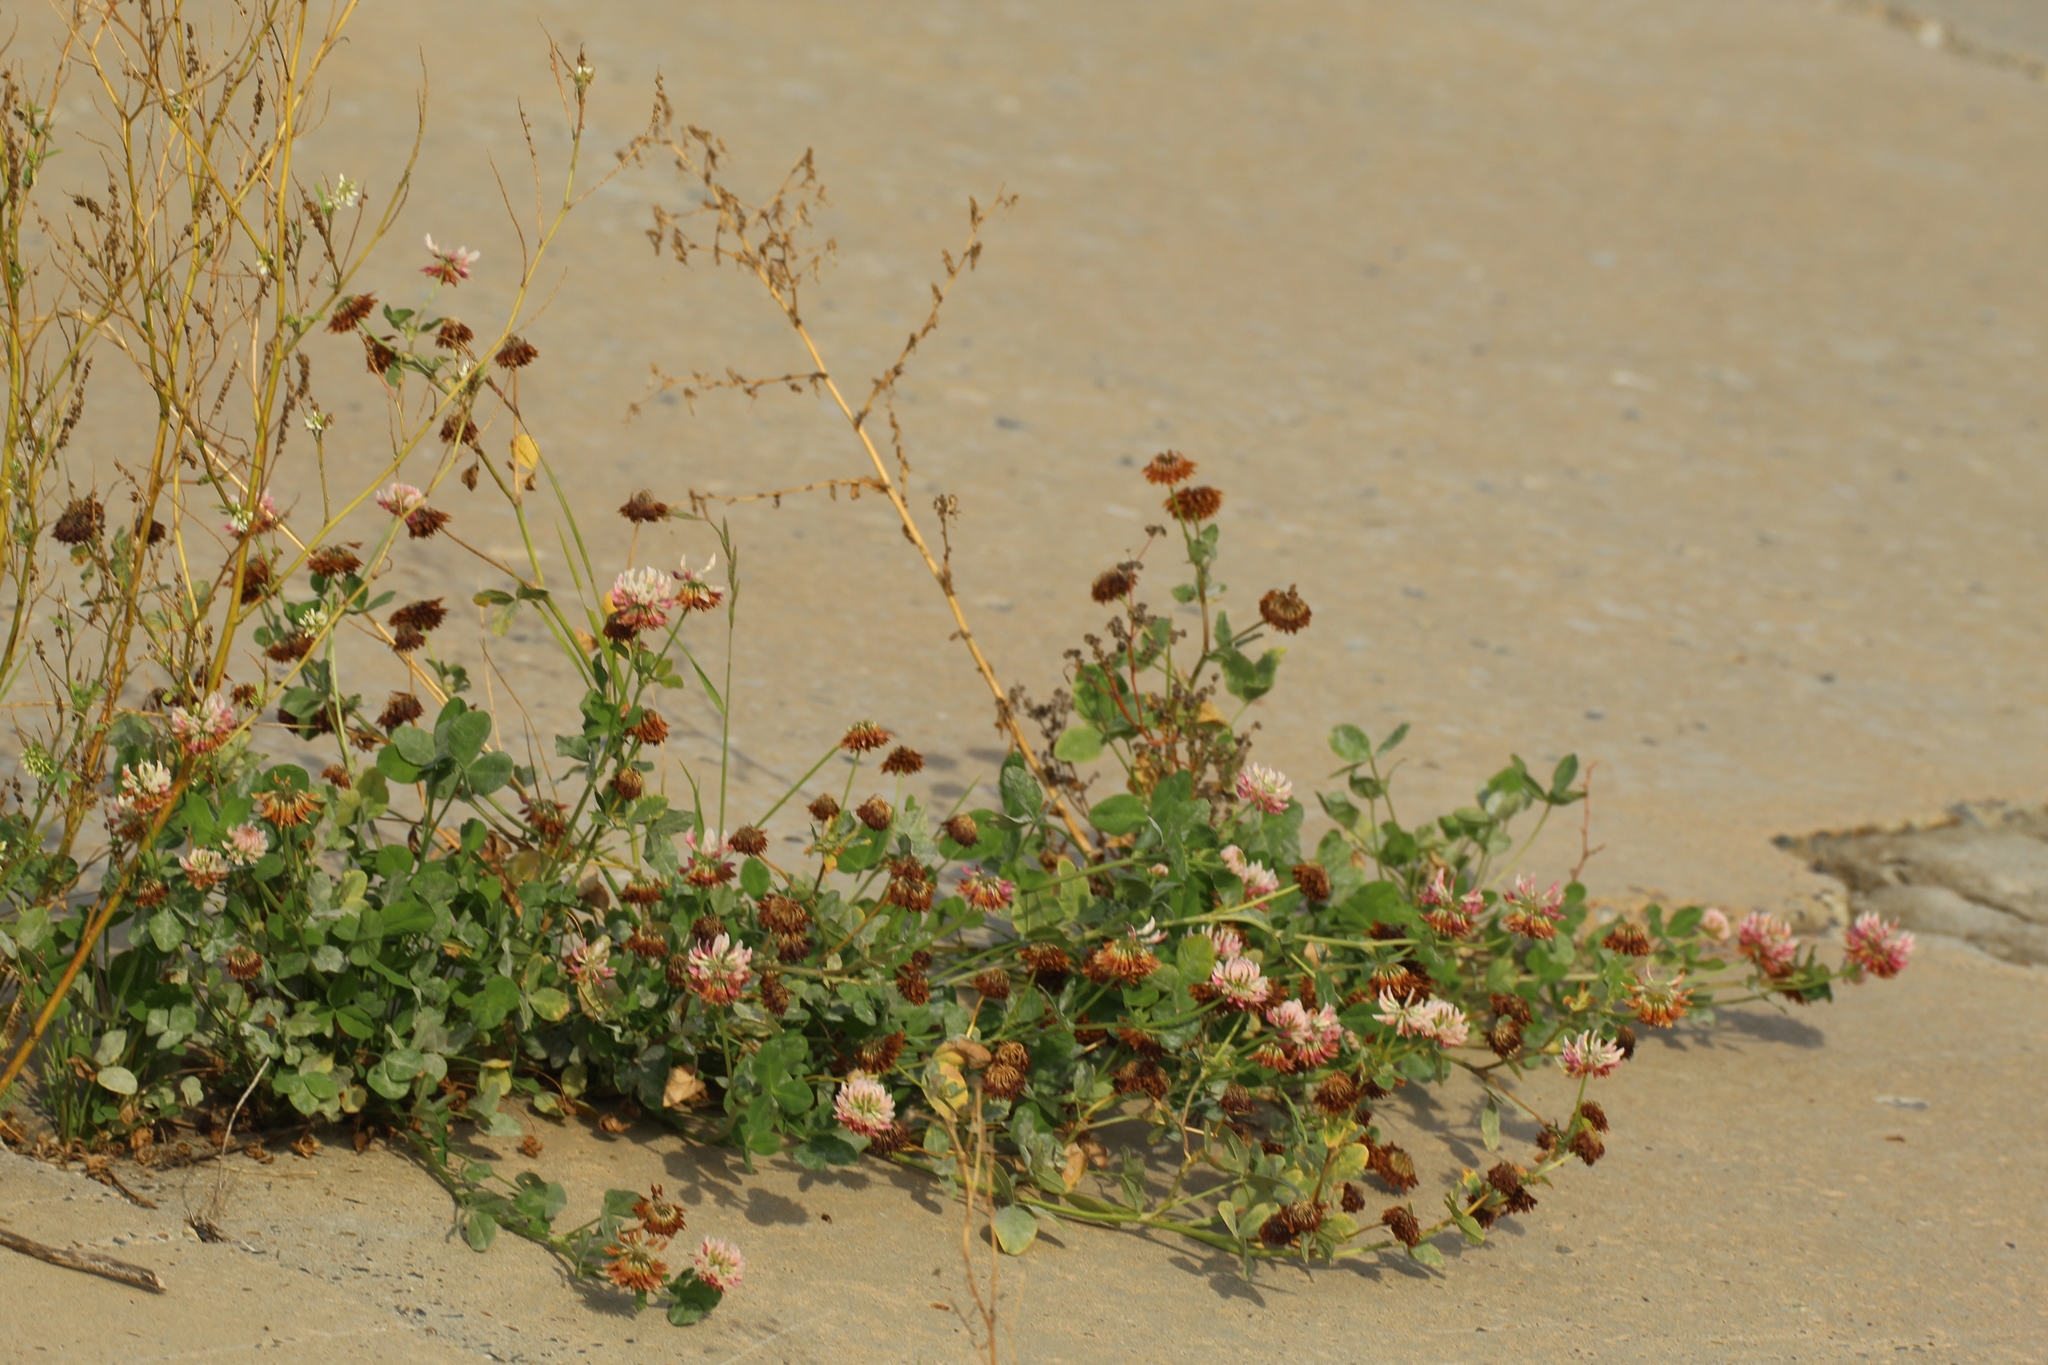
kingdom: Plantae
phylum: Tracheophyta
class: Magnoliopsida
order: Fabales
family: Fabaceae
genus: Trifolium
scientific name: Trifolium hybridum
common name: Alsike clover
